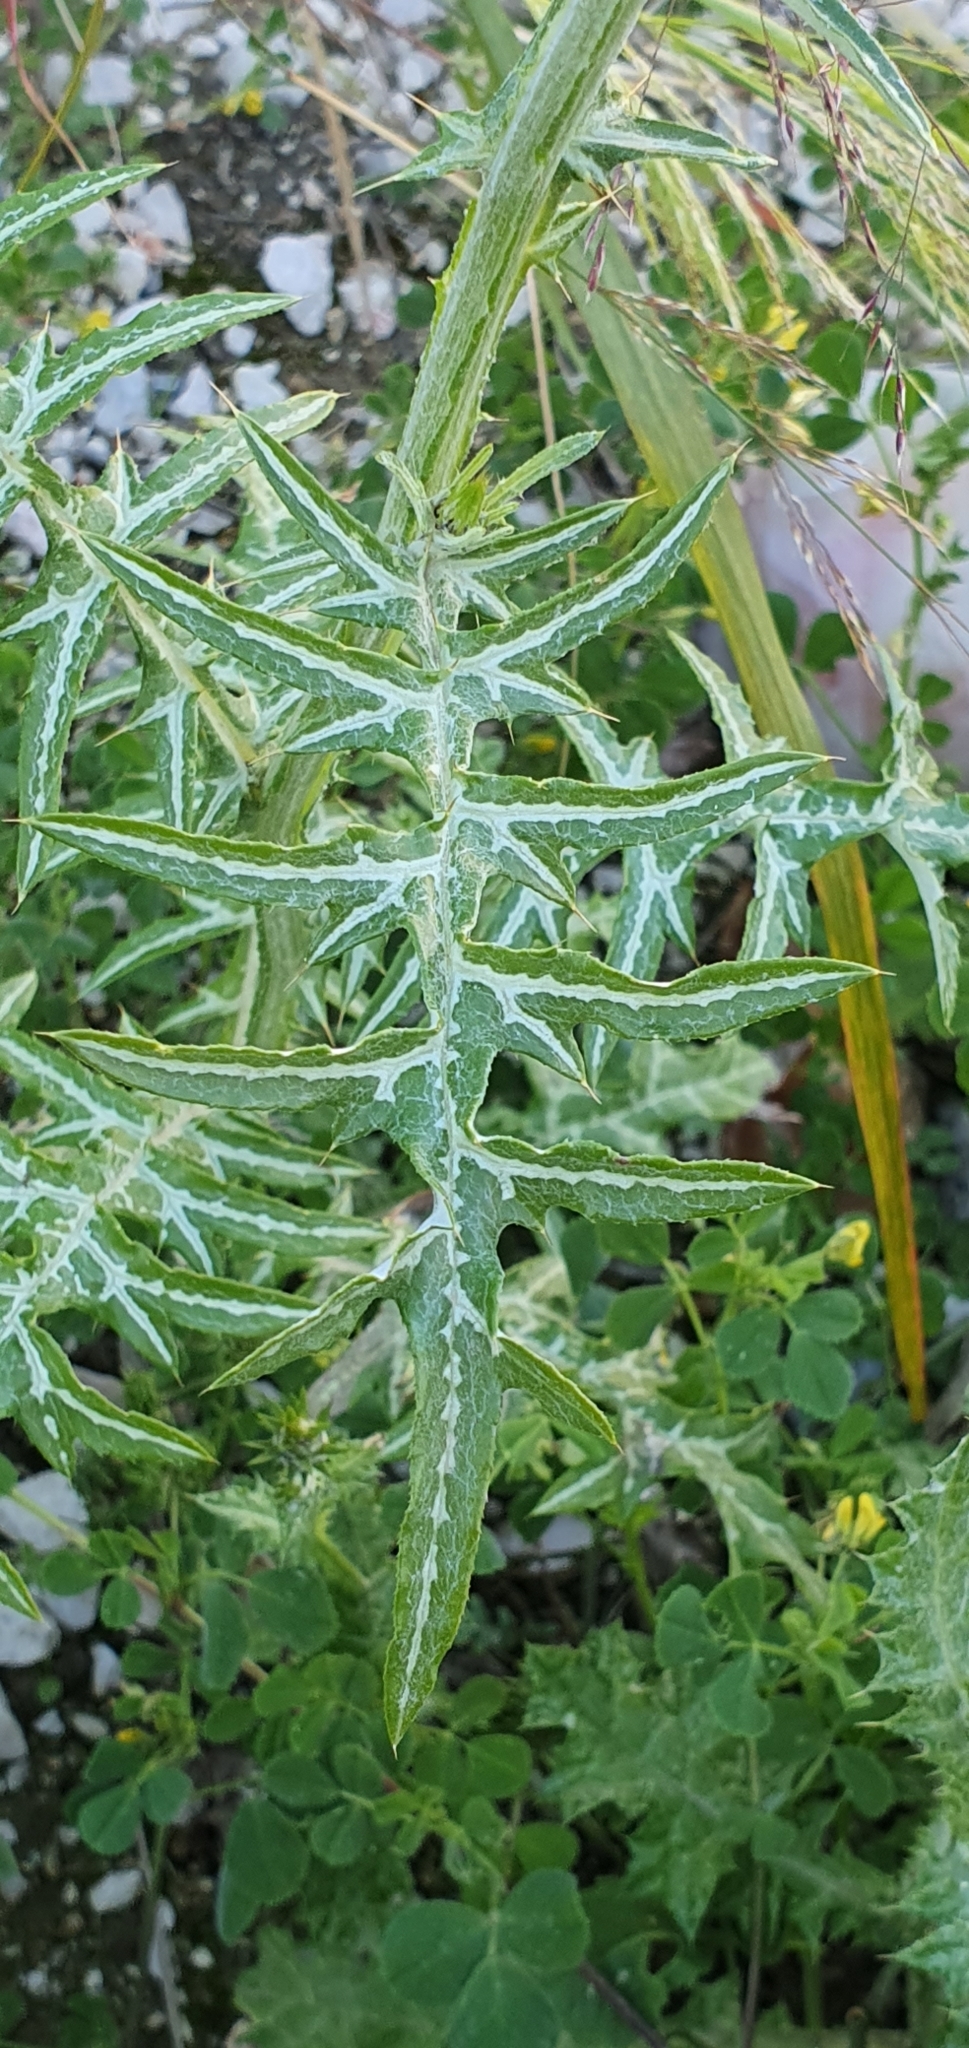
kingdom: Plantae
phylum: Tracheophyta
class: Magnoliopsida
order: Asterales
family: Asteraceae
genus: Galactites
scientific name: Galactites tomentosa
